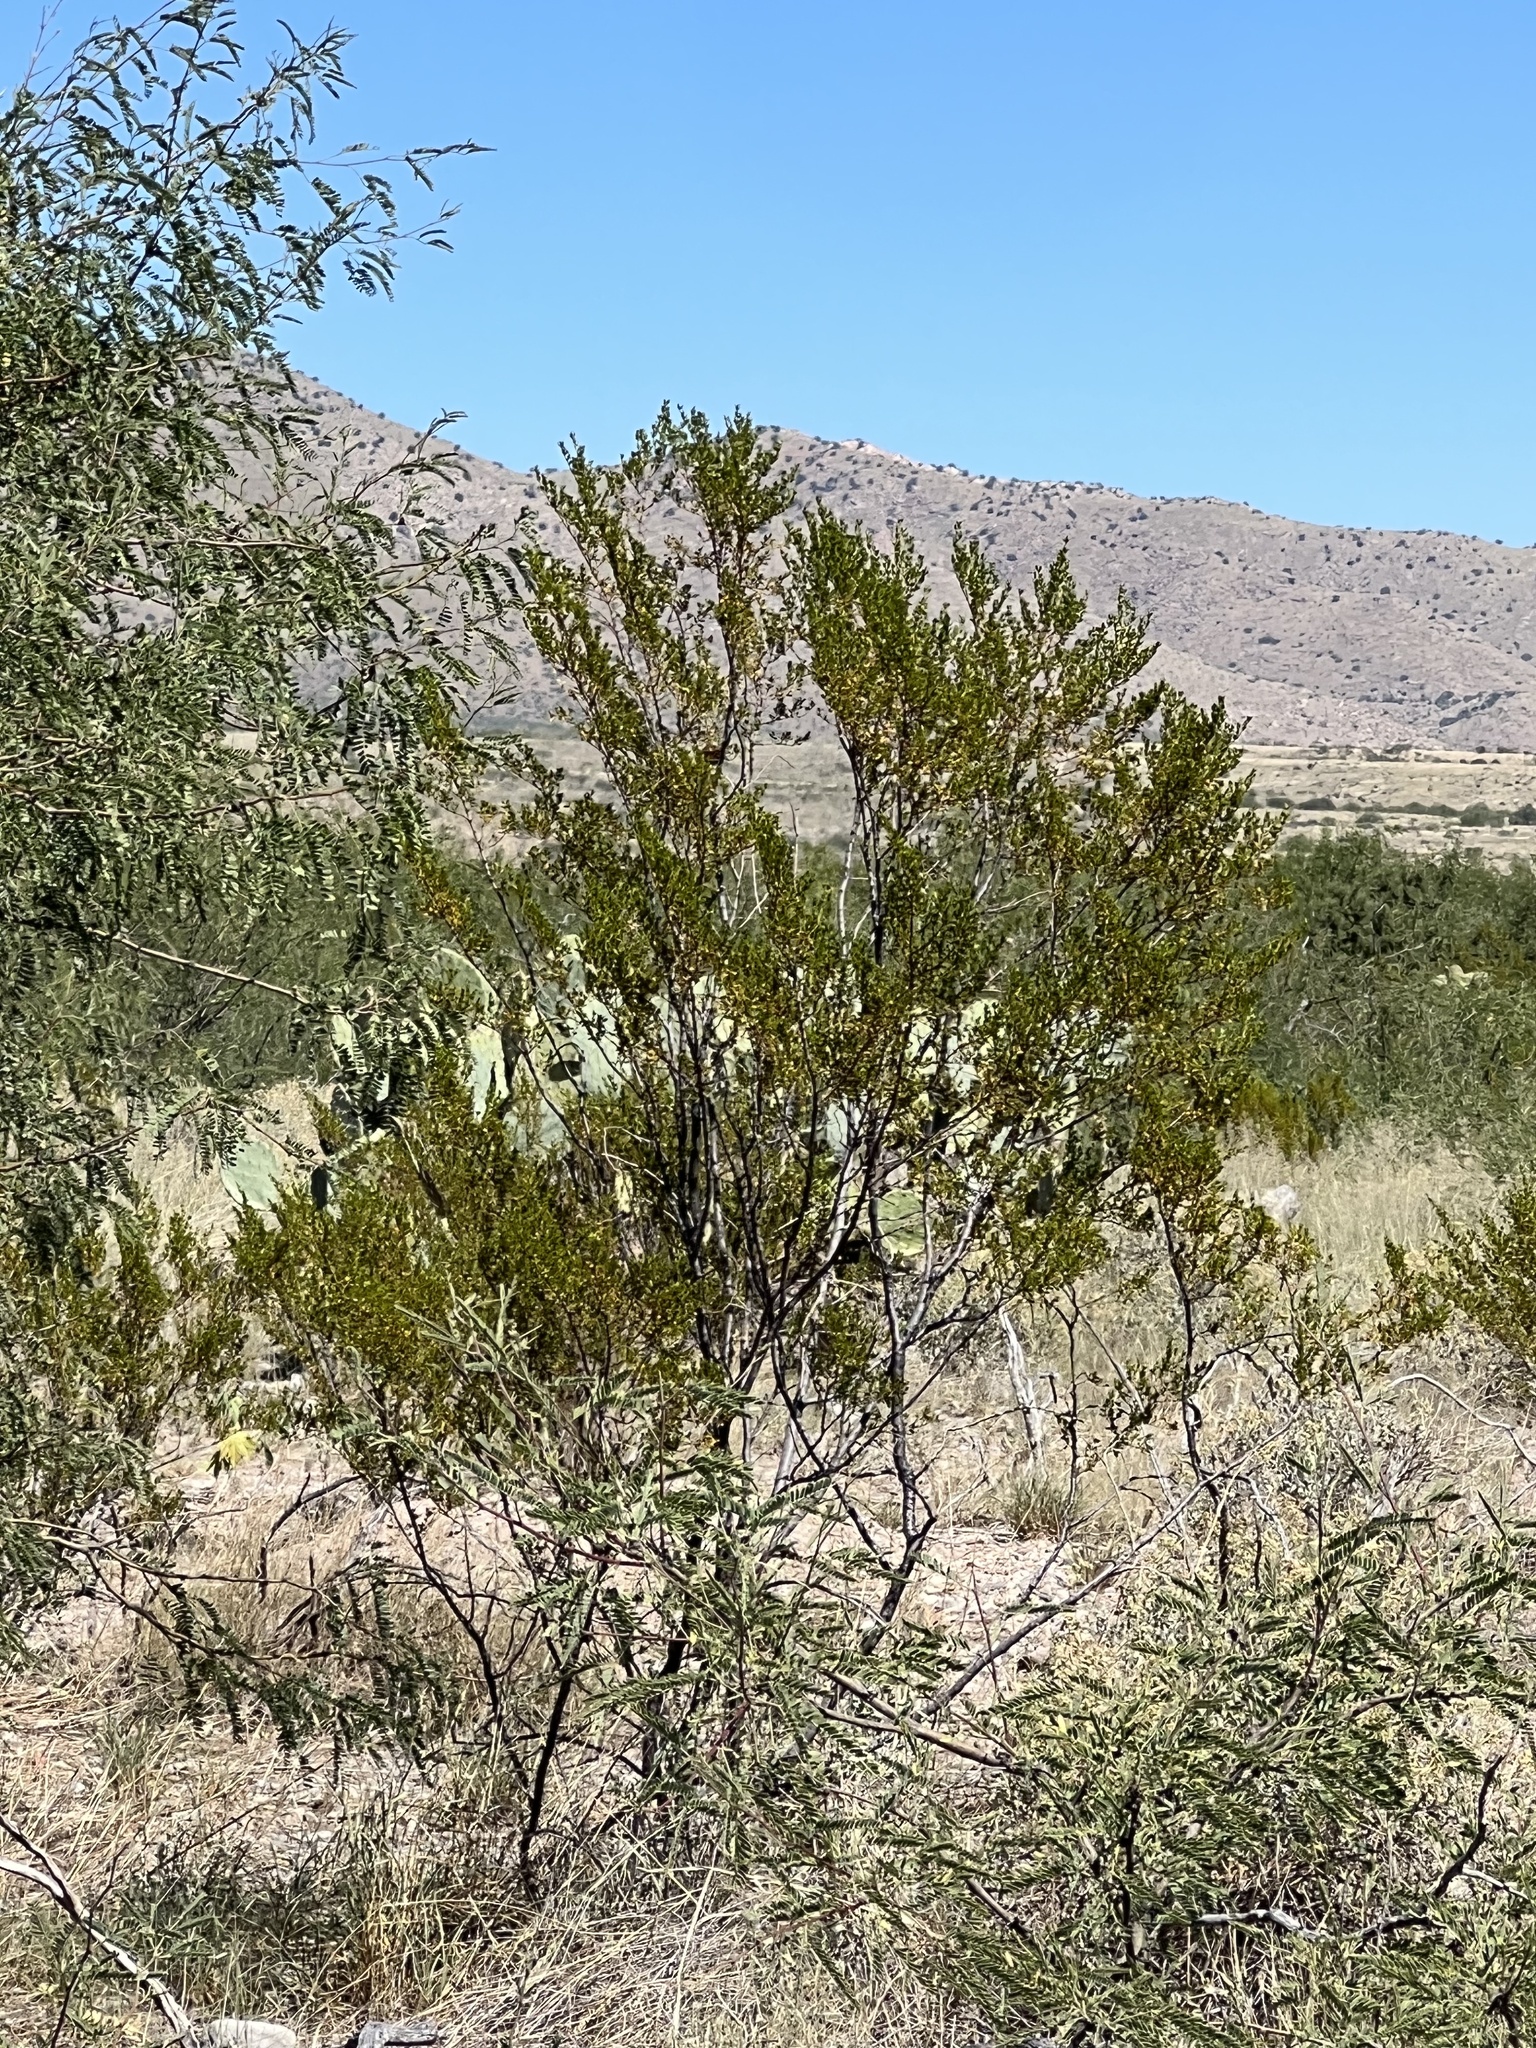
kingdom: Plantae
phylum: Tracheophyta
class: Magnoliopsida
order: Zygophyllales
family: Zygophyllaceae
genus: Larrea
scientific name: Larrea tridentata
